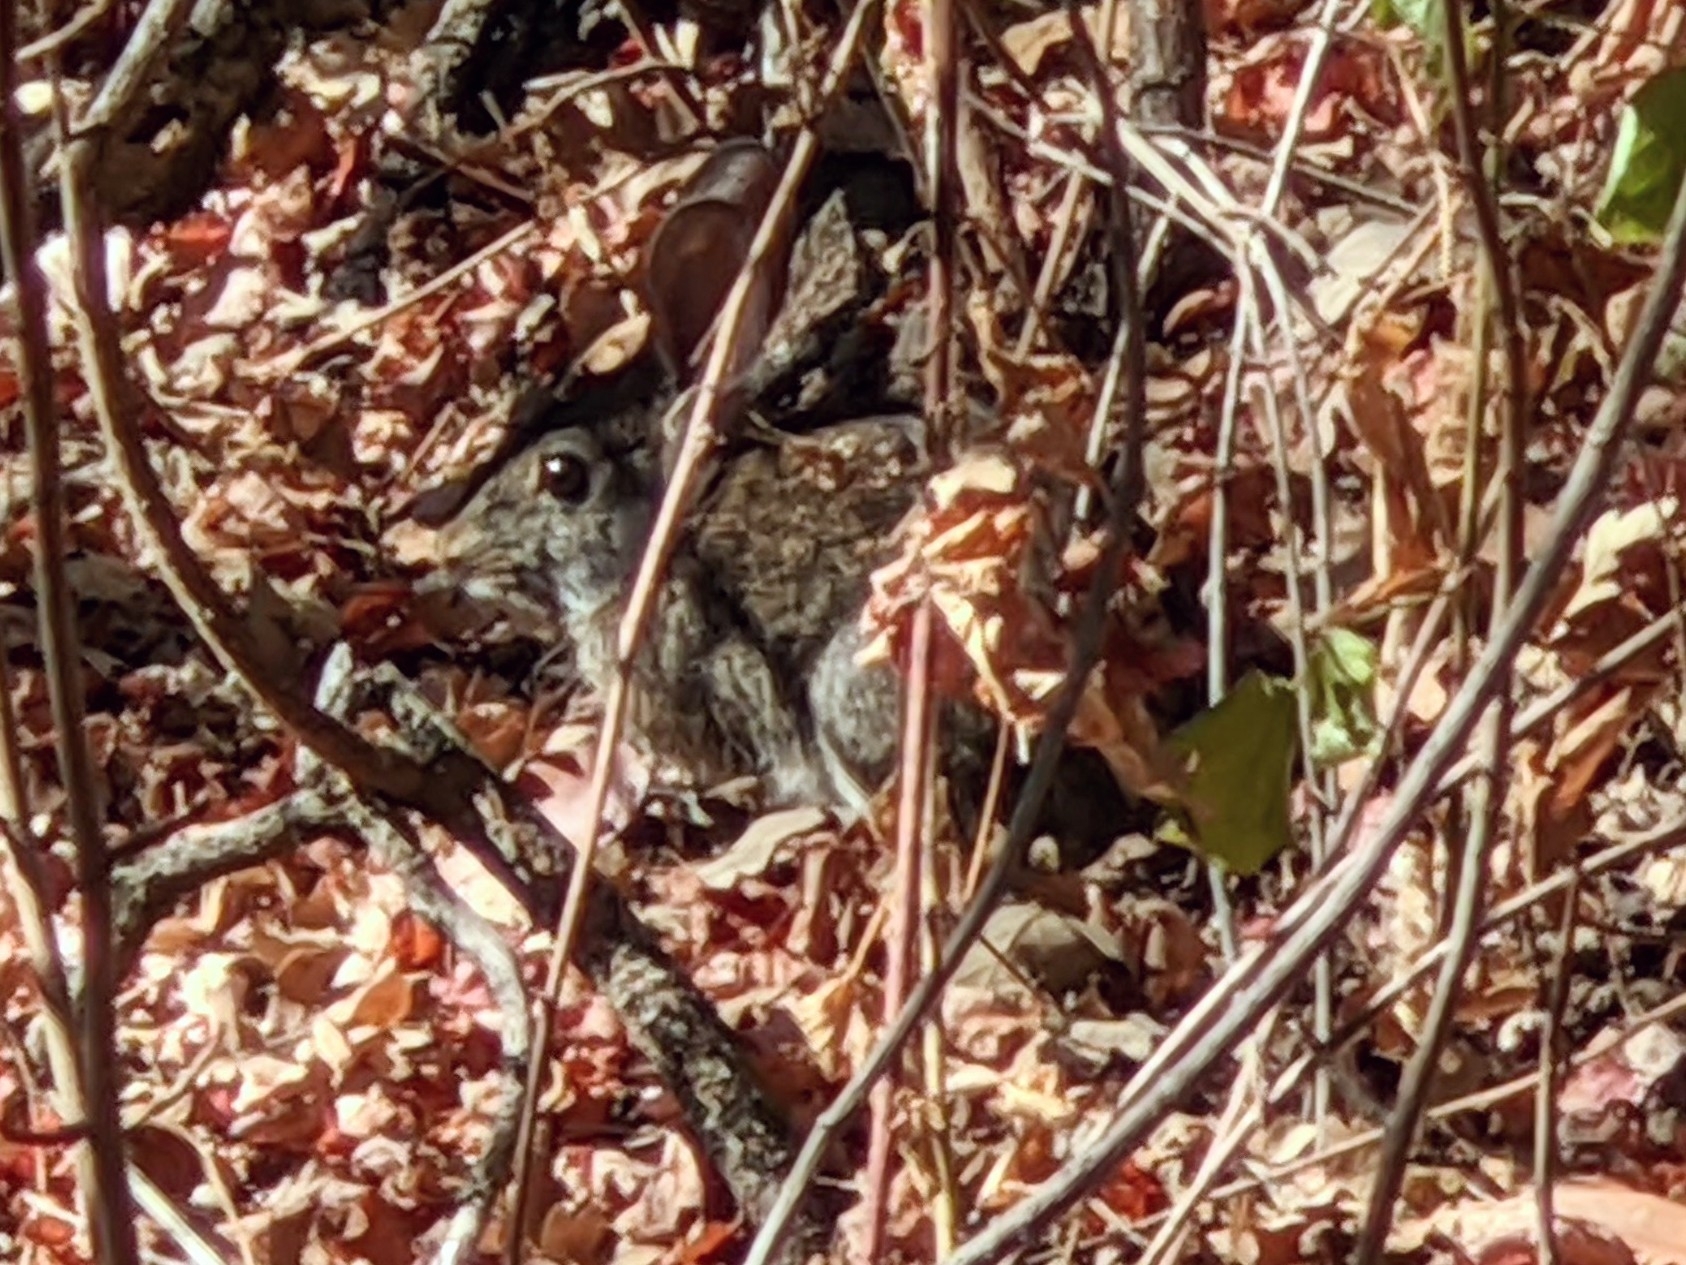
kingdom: Animalia
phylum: Chordata
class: Mammalia
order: Lagomorpha
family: Leporidae
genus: Sylvilagus
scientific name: Sylvilagus bachmani
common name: Brush rabbit
